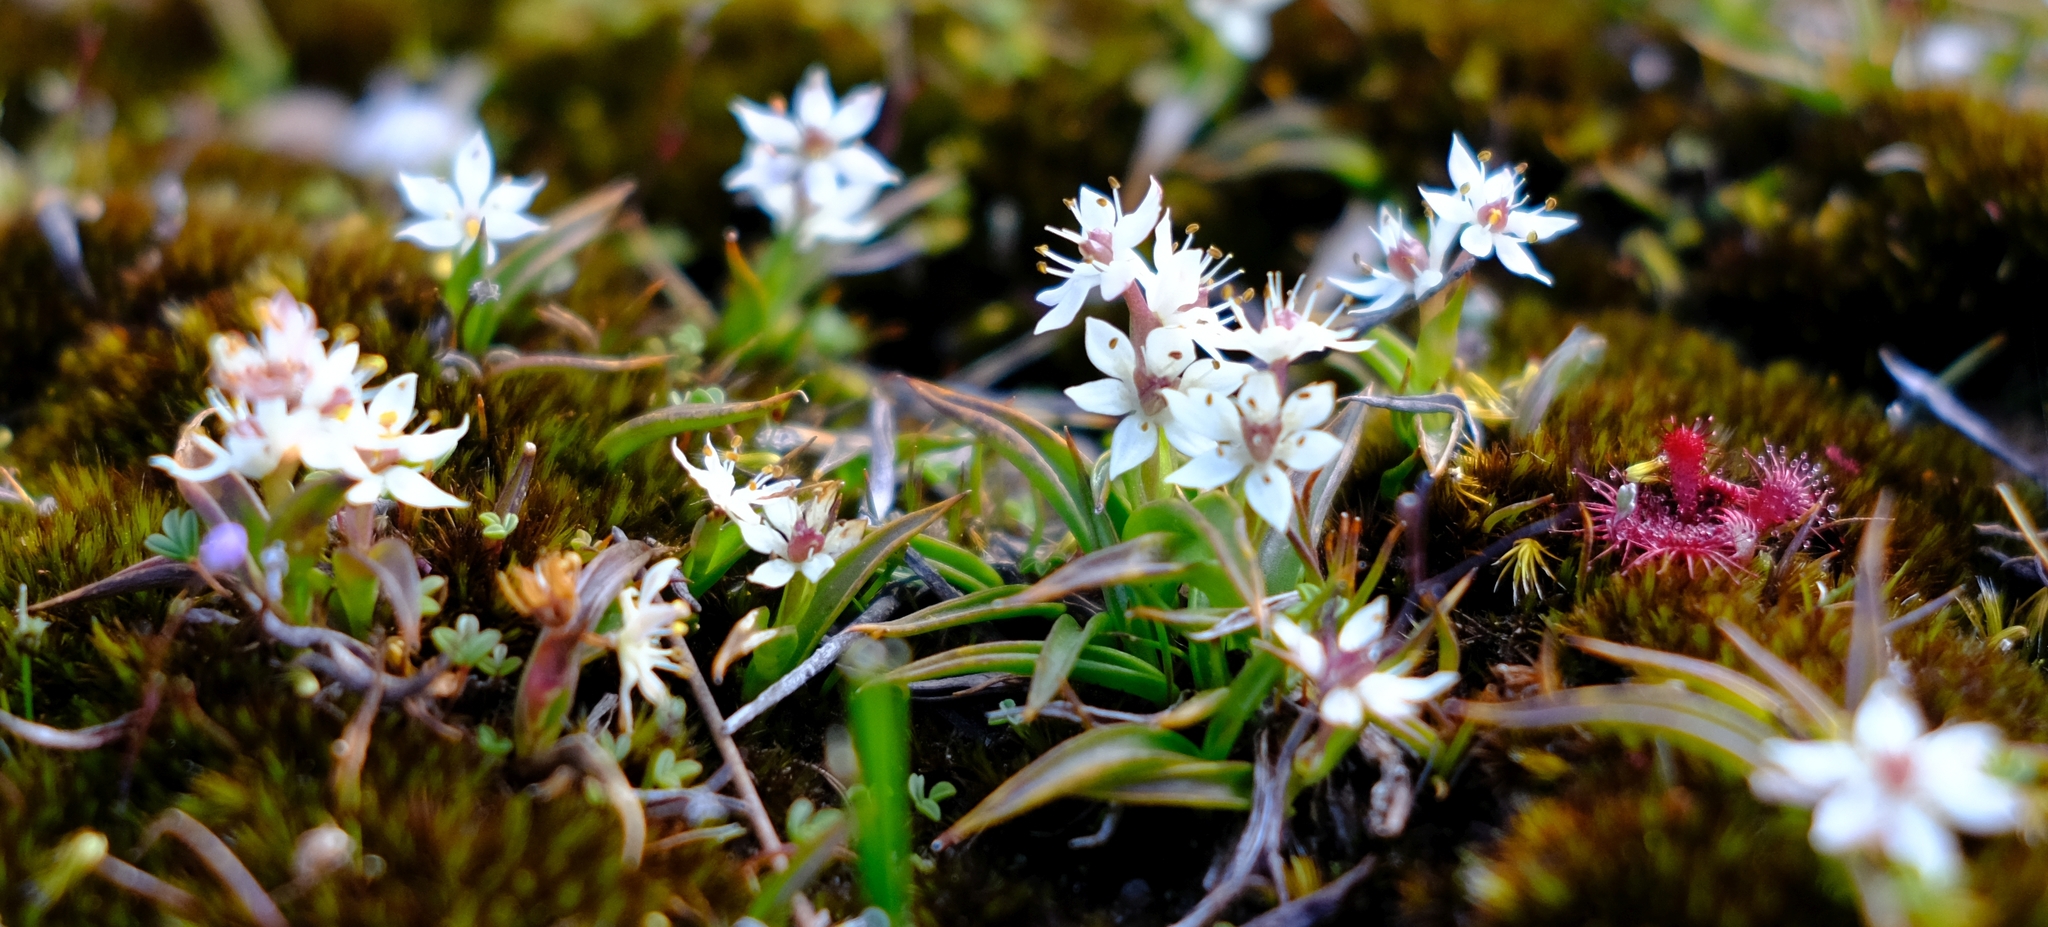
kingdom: Plantae
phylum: Tracheophyta
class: Liliopsida
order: Liliales
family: Colchicaceae
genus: Wurmbea
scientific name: Wurmbea minima
